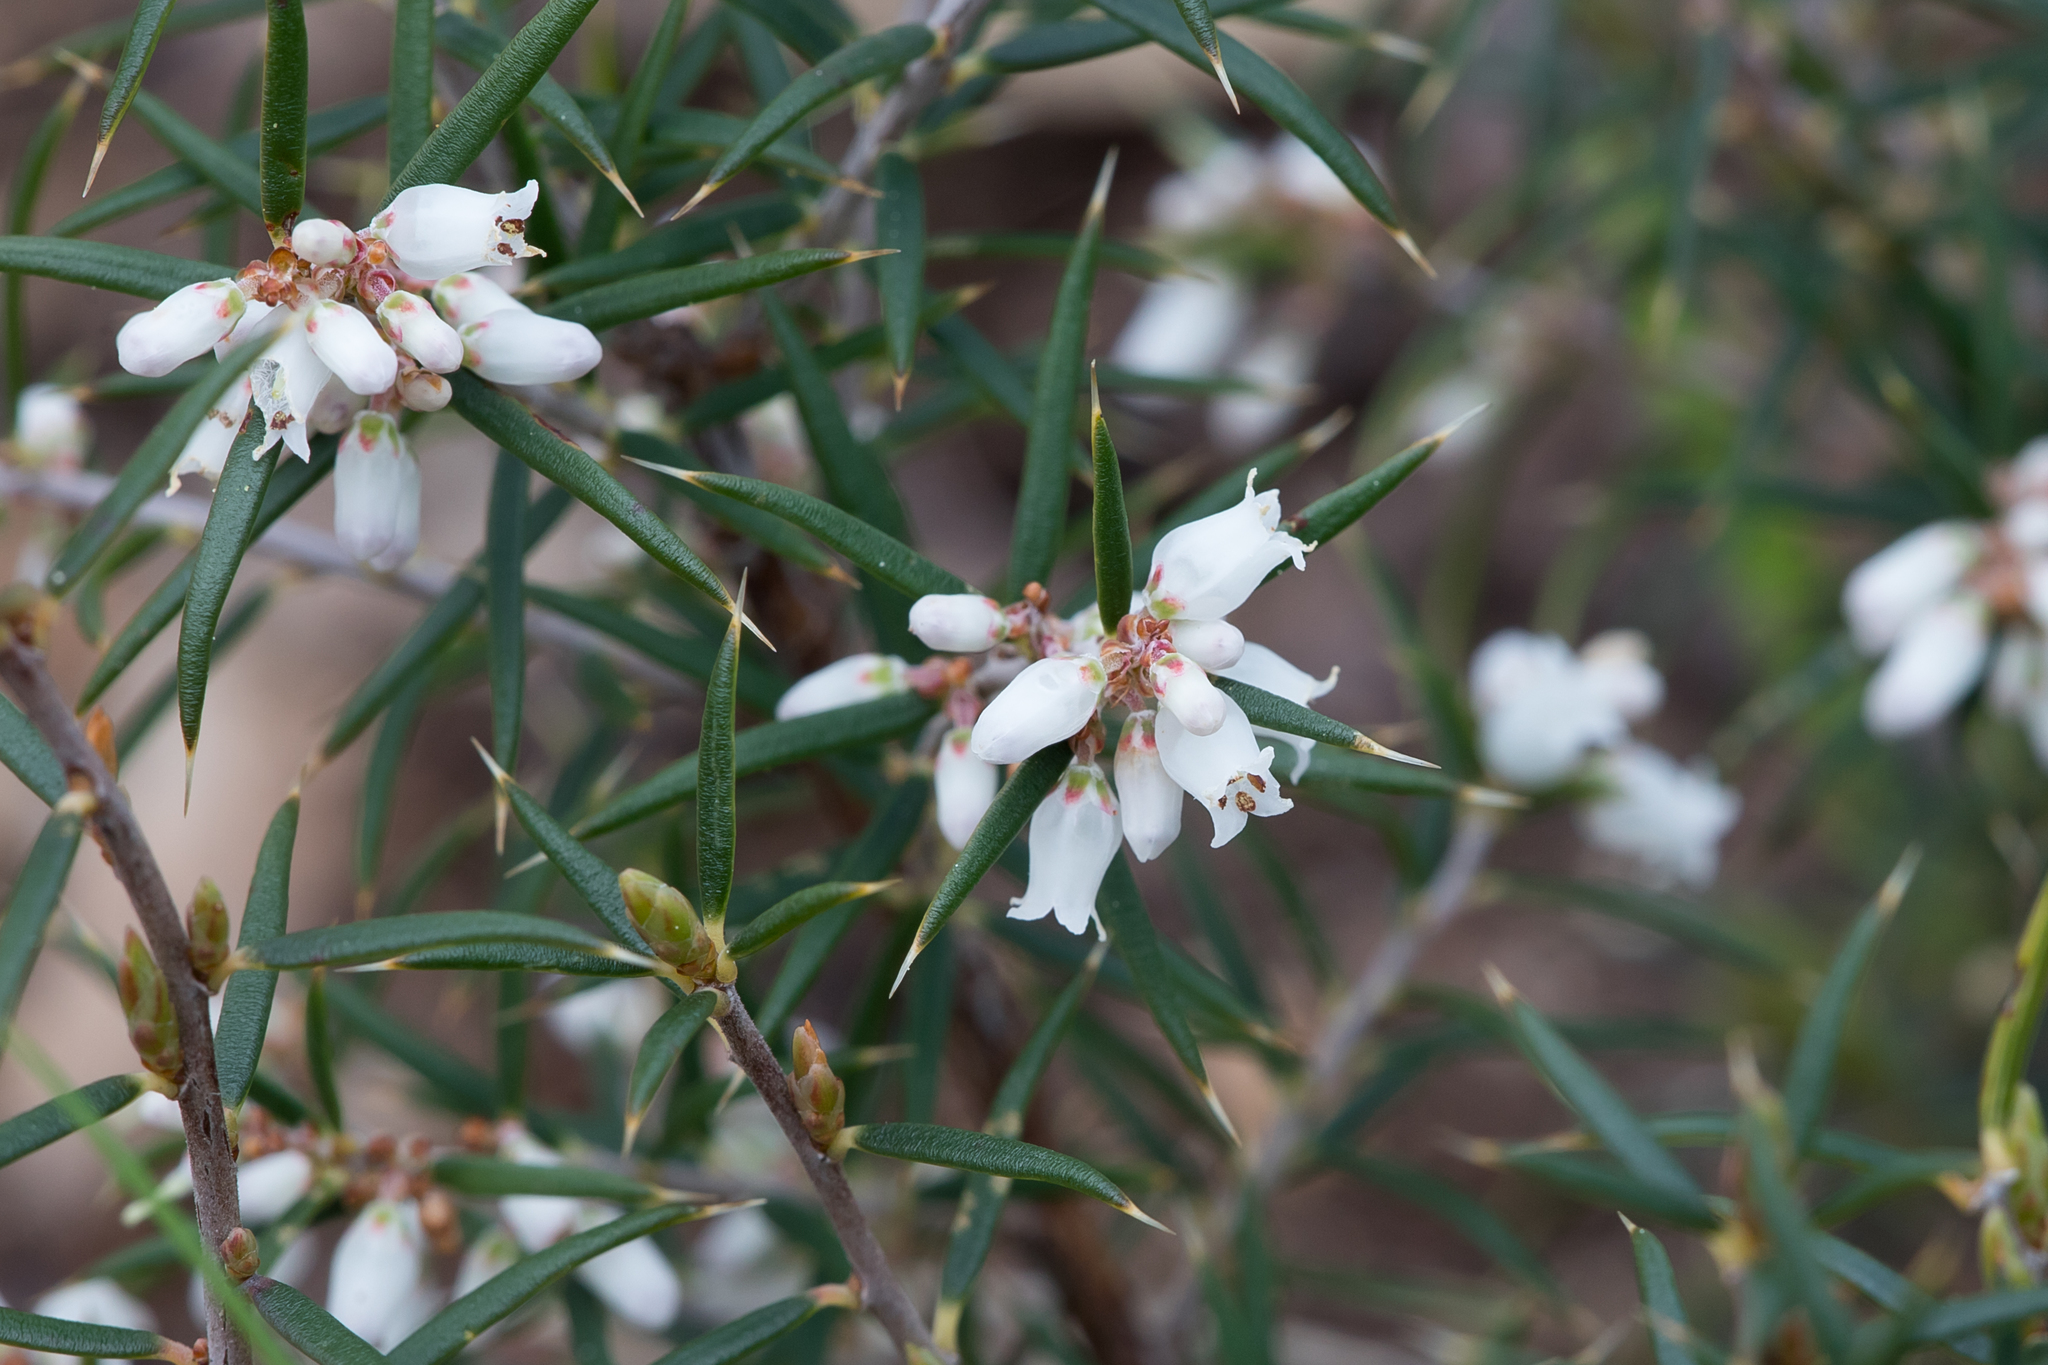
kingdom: Plantae
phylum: Tracheophyta
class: Magnoliopsida
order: Ericales
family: Ericaceae
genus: Lissanthe
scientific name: Lissanthe strigosa
